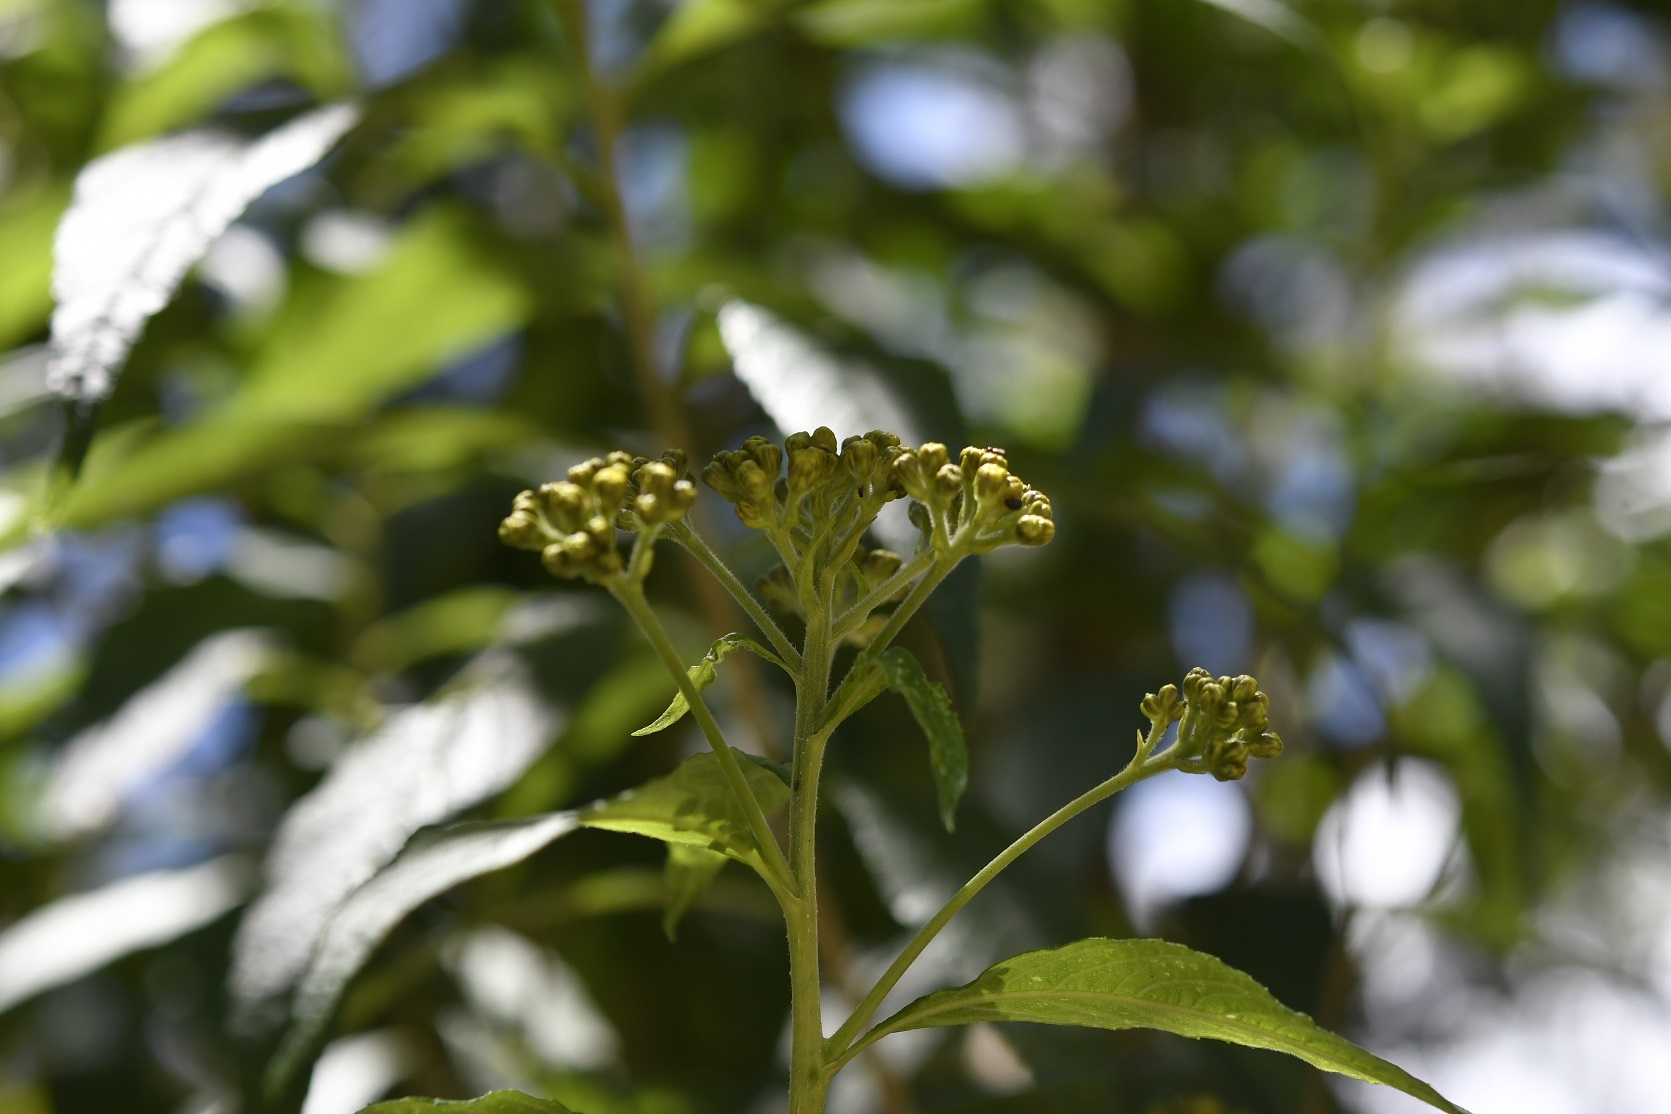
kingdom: Plantae
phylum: Tracheophyta
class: Magnoliopsida
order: Asterales
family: Asteraceae
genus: Verbesina
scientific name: Verbesina perymenioides
